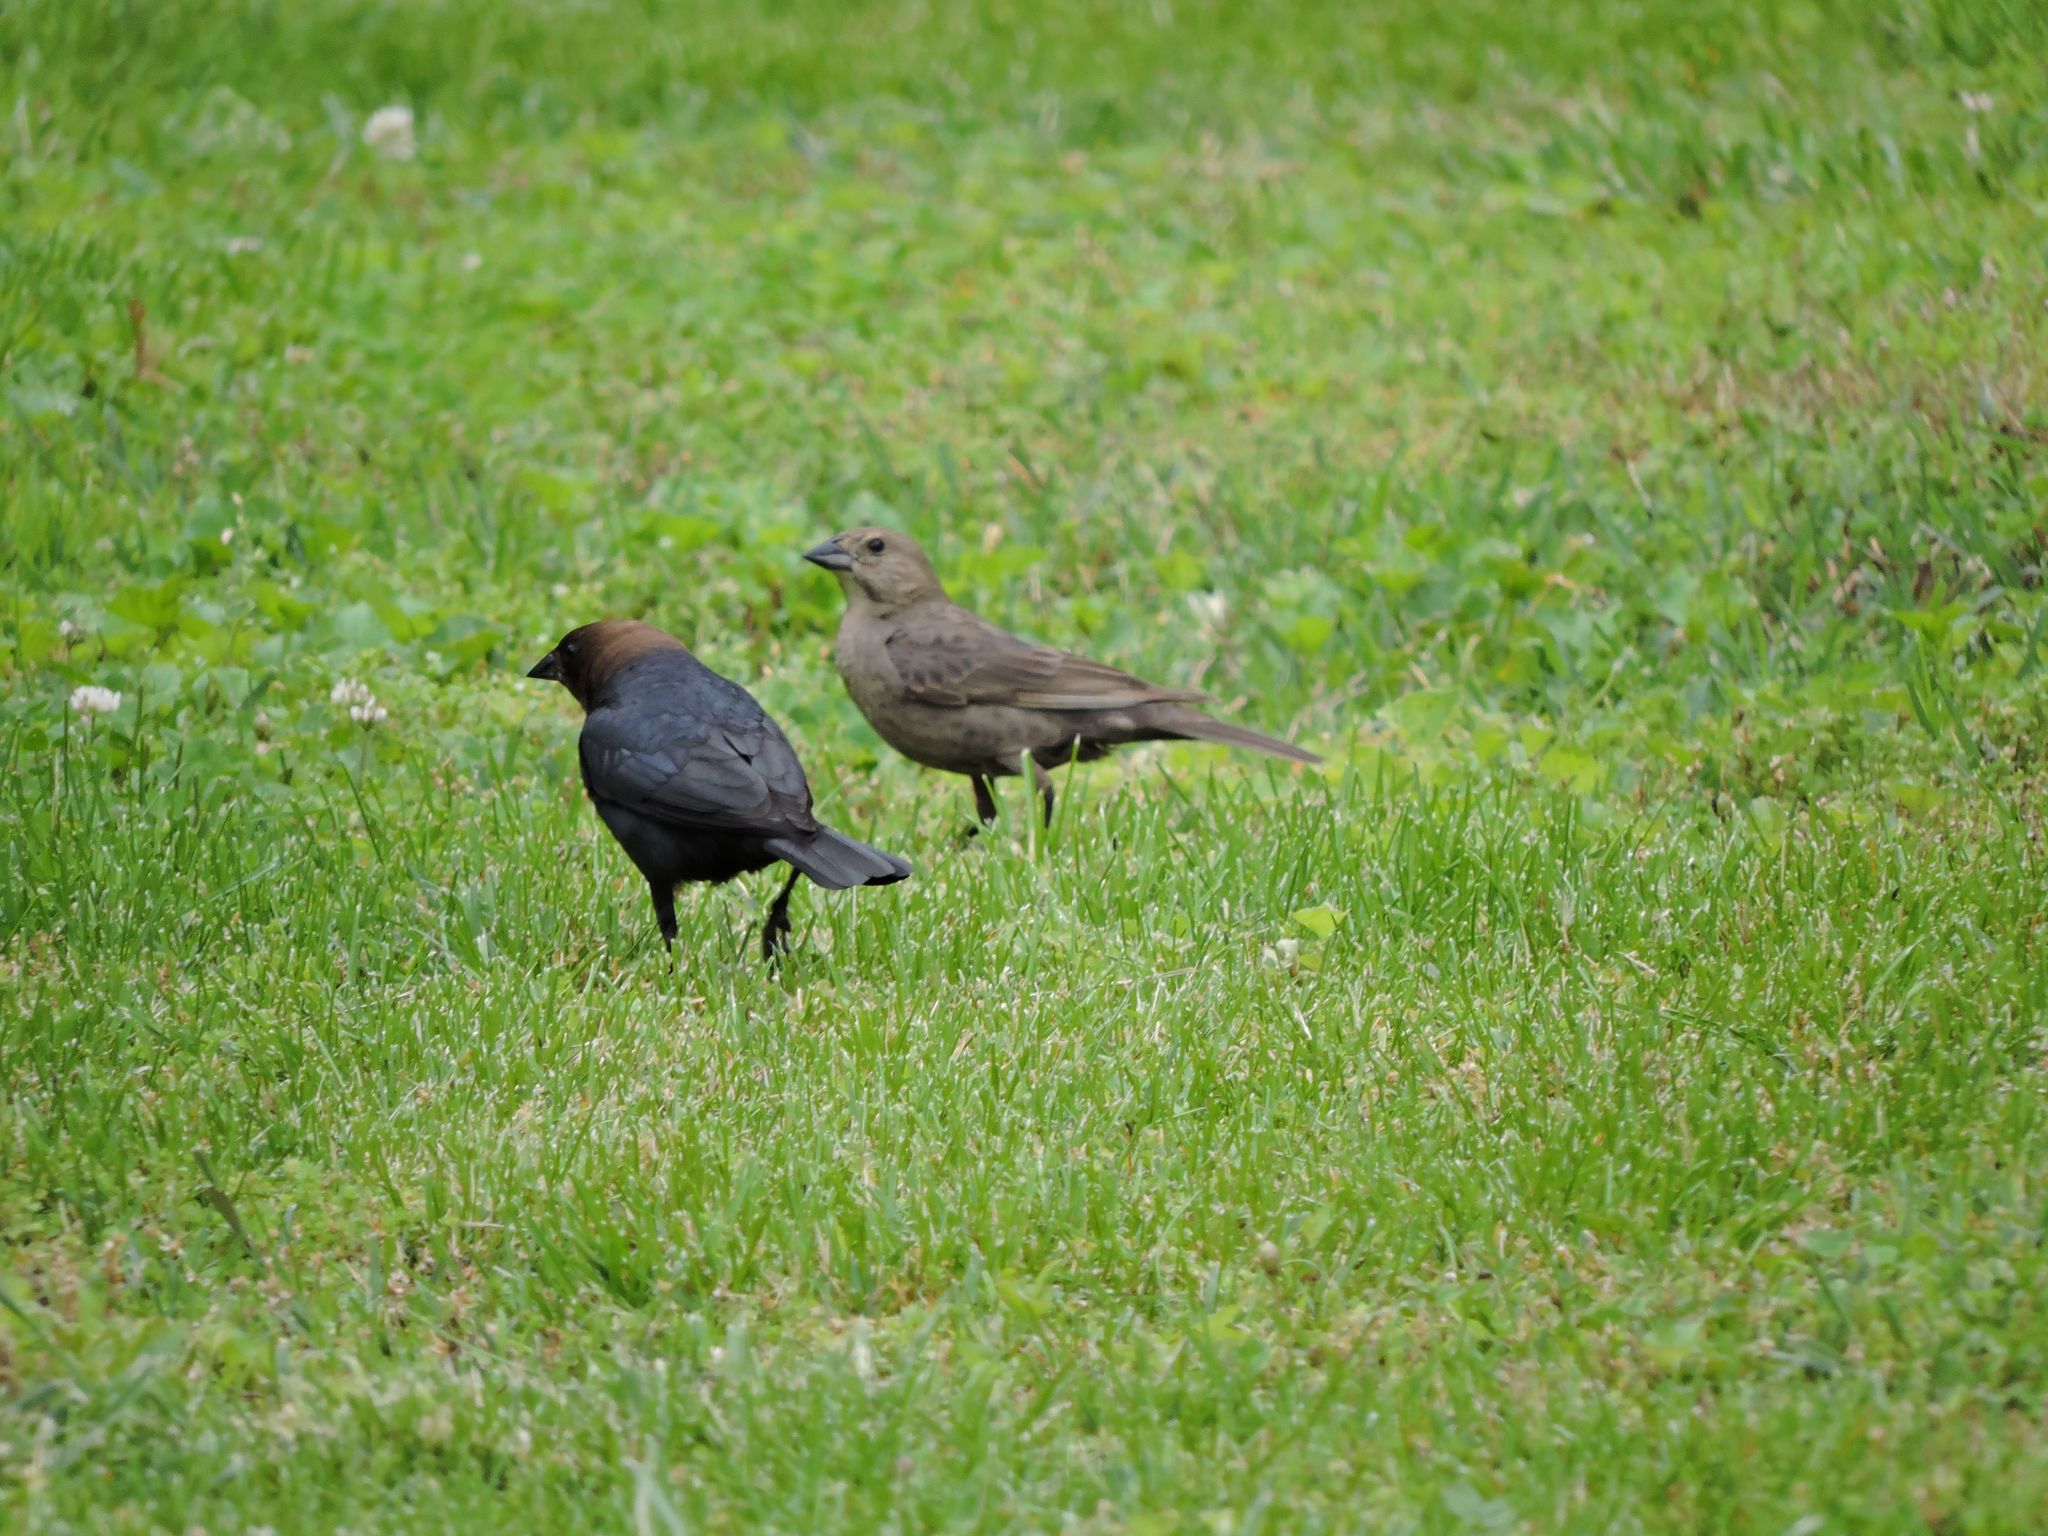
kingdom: Animalia
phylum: Chordata
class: Aves
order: Passeriformes
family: Icteridae
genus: Molothrus
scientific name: Molothrus ater
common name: Brown-headed cowbird
